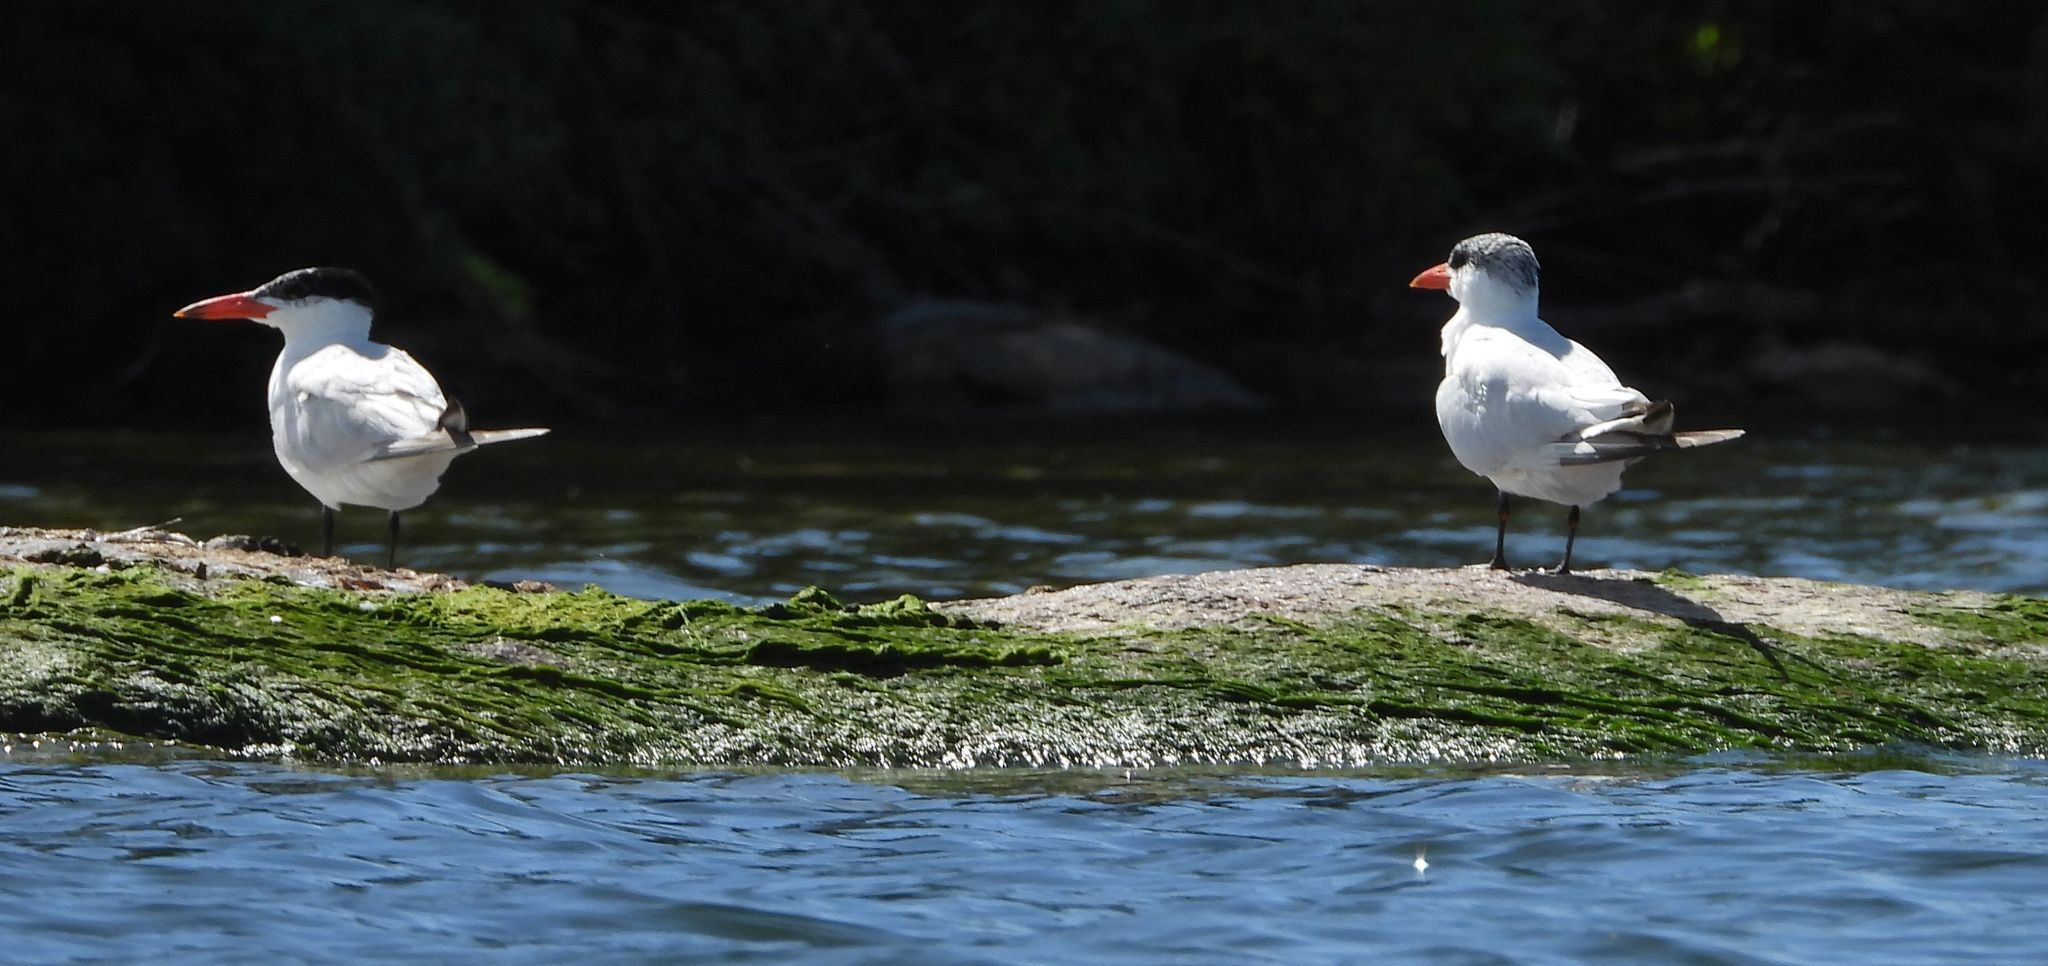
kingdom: Animalia
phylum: Chordata
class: Aves
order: Charadriiformes
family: Laridae
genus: Hydroprogne
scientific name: Hydroprogne caspia
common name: Caspian tern
